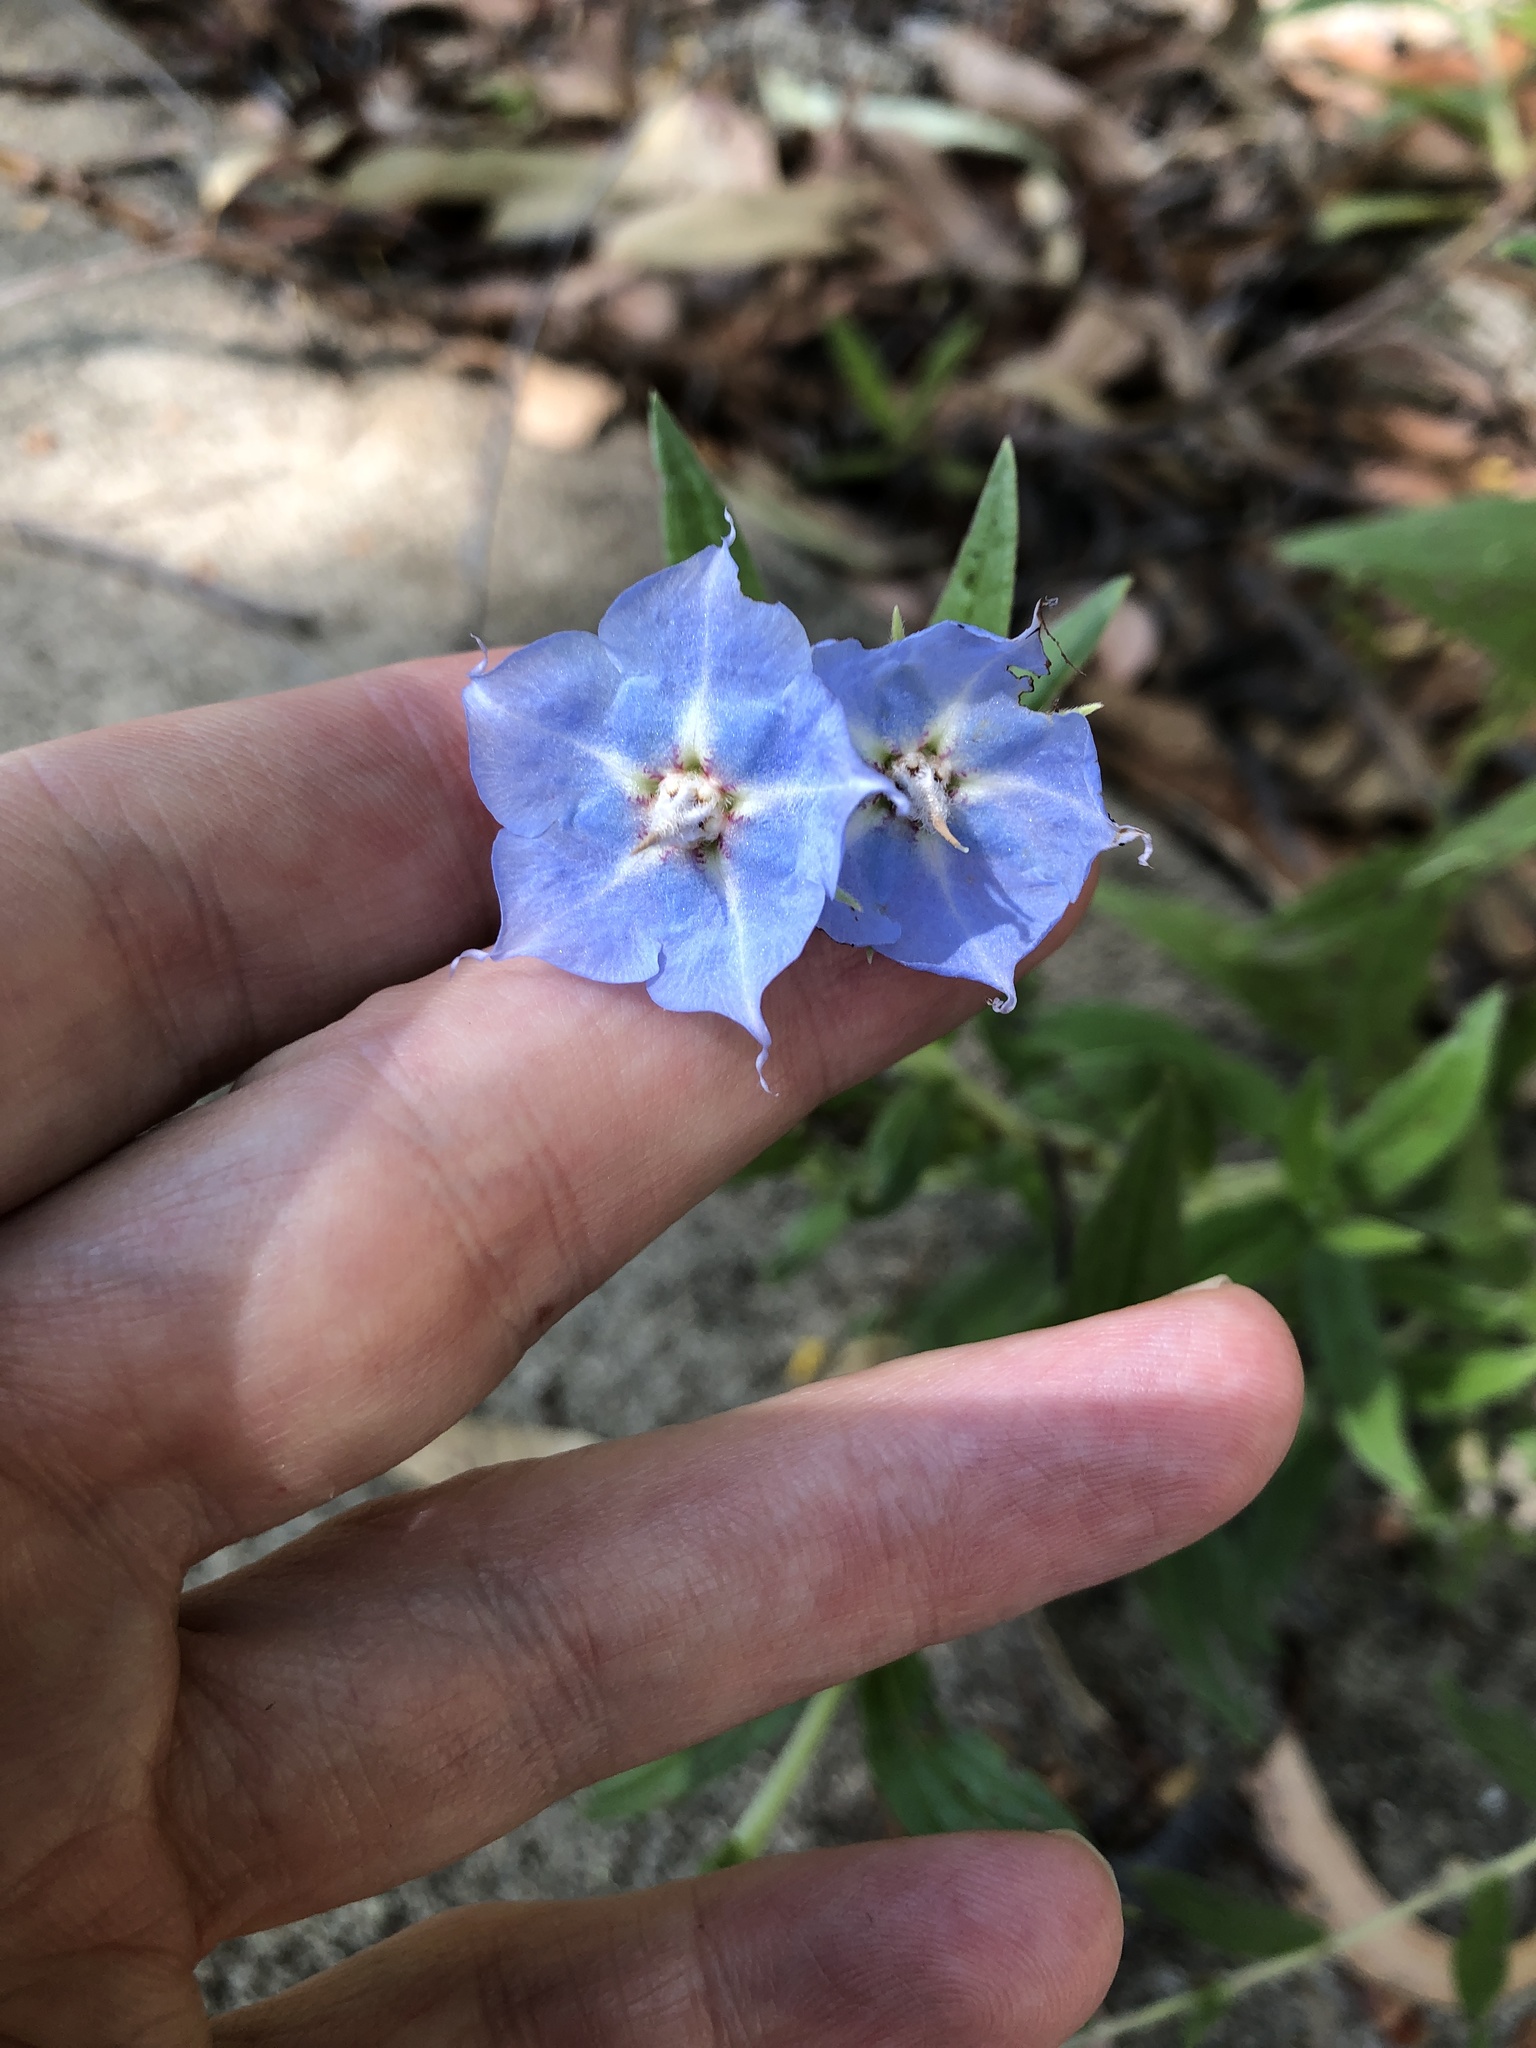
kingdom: Plantae
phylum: Tracheophyta
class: Magnoliopsida
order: Boraginales
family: Boraginaceae
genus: Trichodesma
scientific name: Trichodesma zeylanicum
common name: Camelbush
